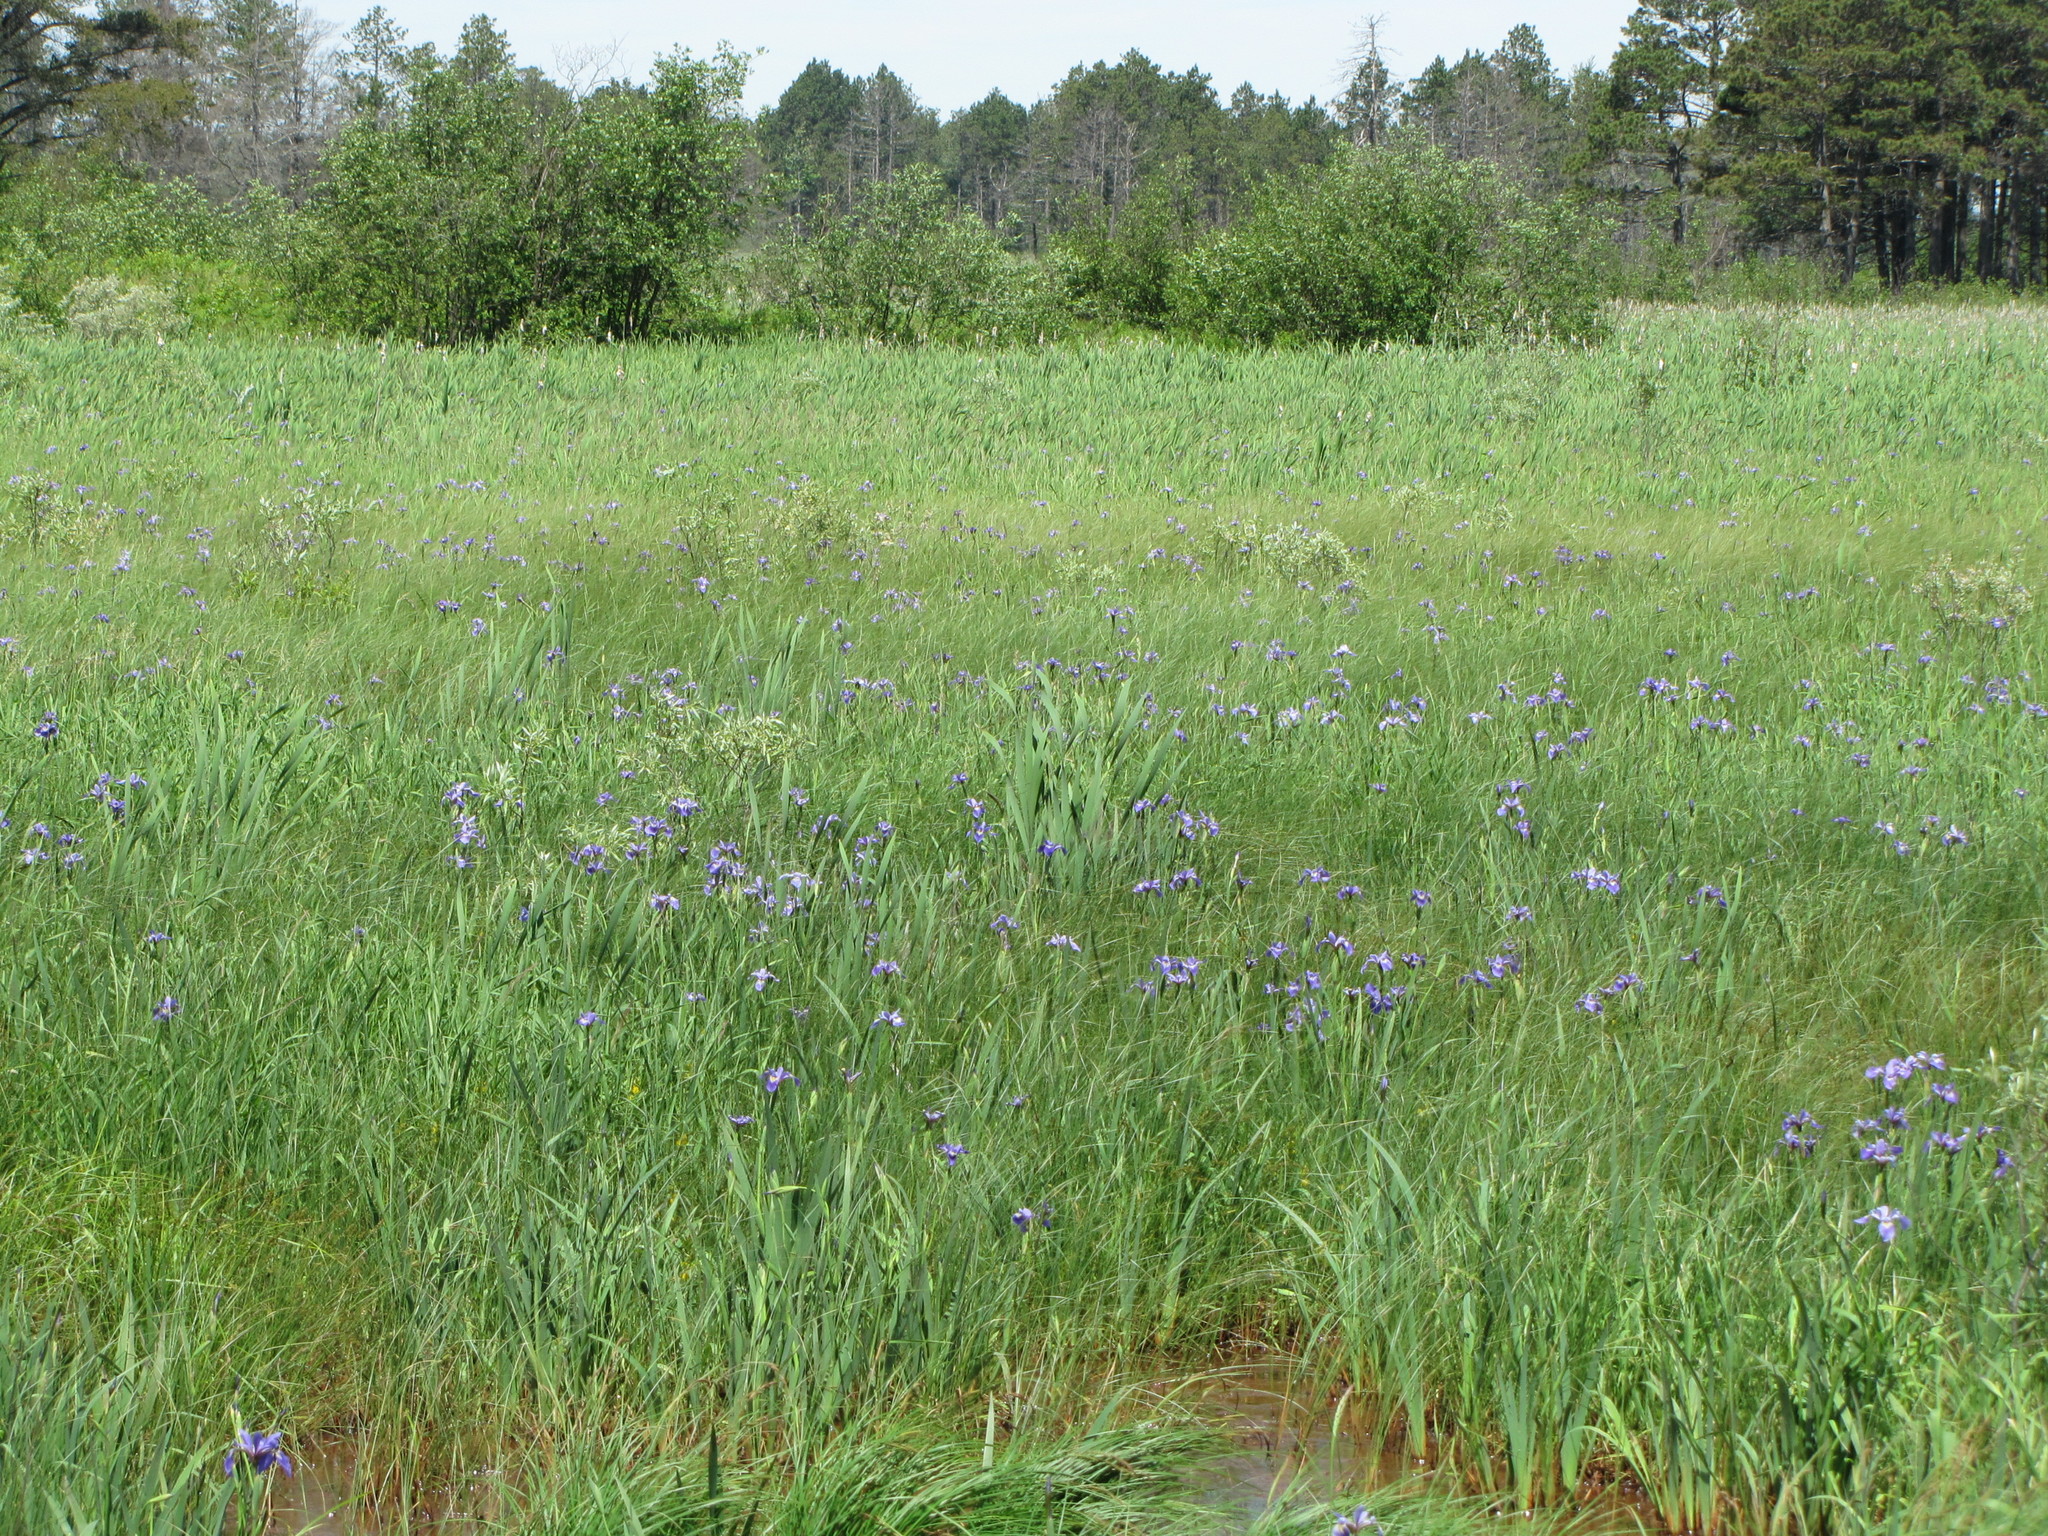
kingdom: Plantae
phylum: Tracheophyta
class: Liliopsida
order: Asparagales
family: Iridaceae
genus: Iris
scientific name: Iris versicolor
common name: Purple iris
